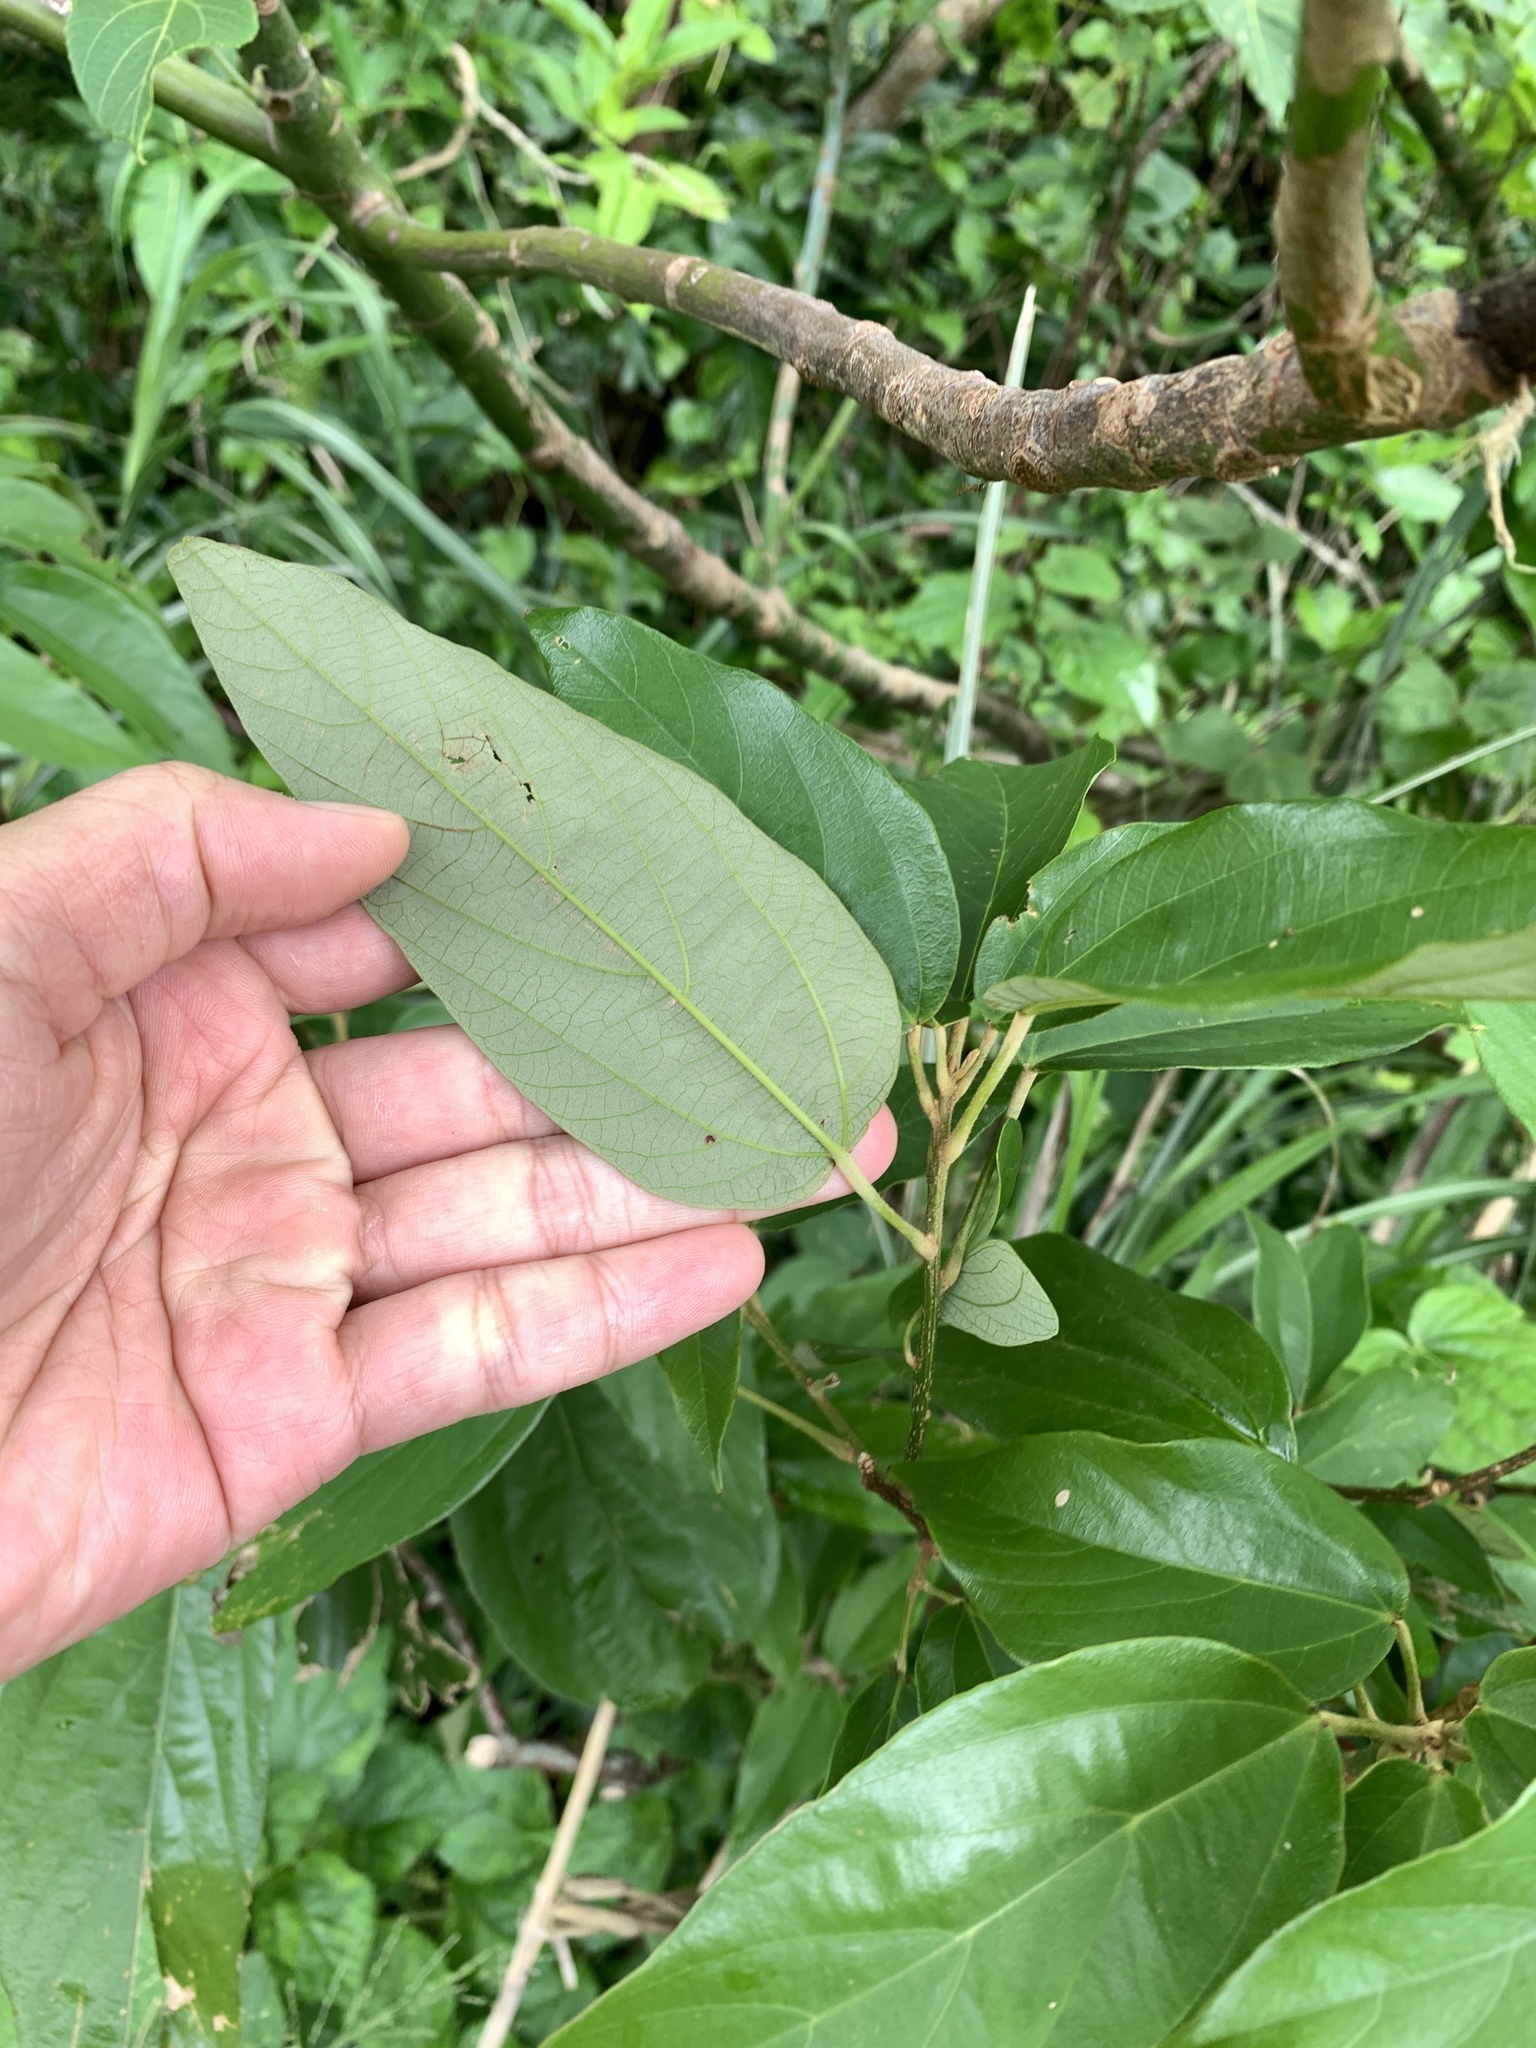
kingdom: Plantae
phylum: Tracheophyta
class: Magnoliopsida
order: Malpighiales
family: Euphorbiaceae
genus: Mallotus
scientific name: Mallotus philippensis
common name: Kamala tree
